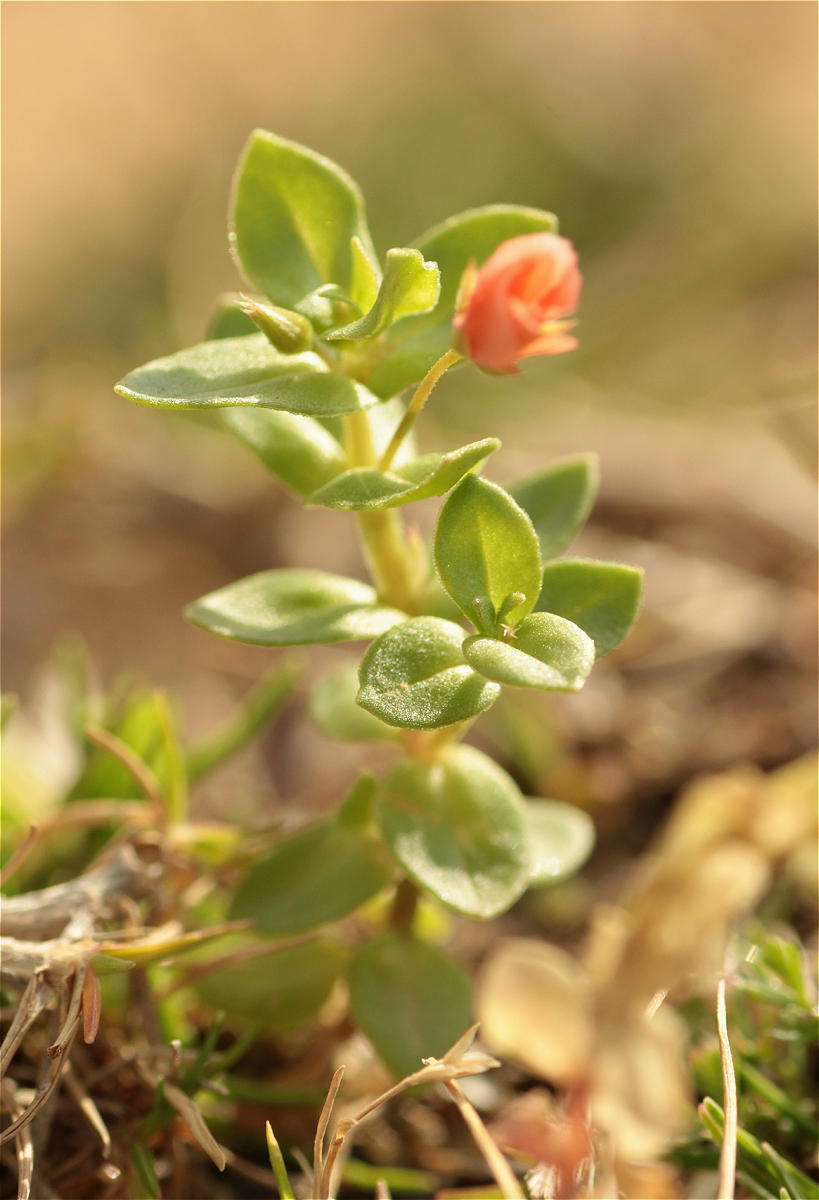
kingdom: Plantae
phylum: Tracheophyta
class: Magnoliopsida
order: Ericales
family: Primulaceae
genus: Lysimachia
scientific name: Lysimachia arvensis
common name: Scarlet pimpernel
